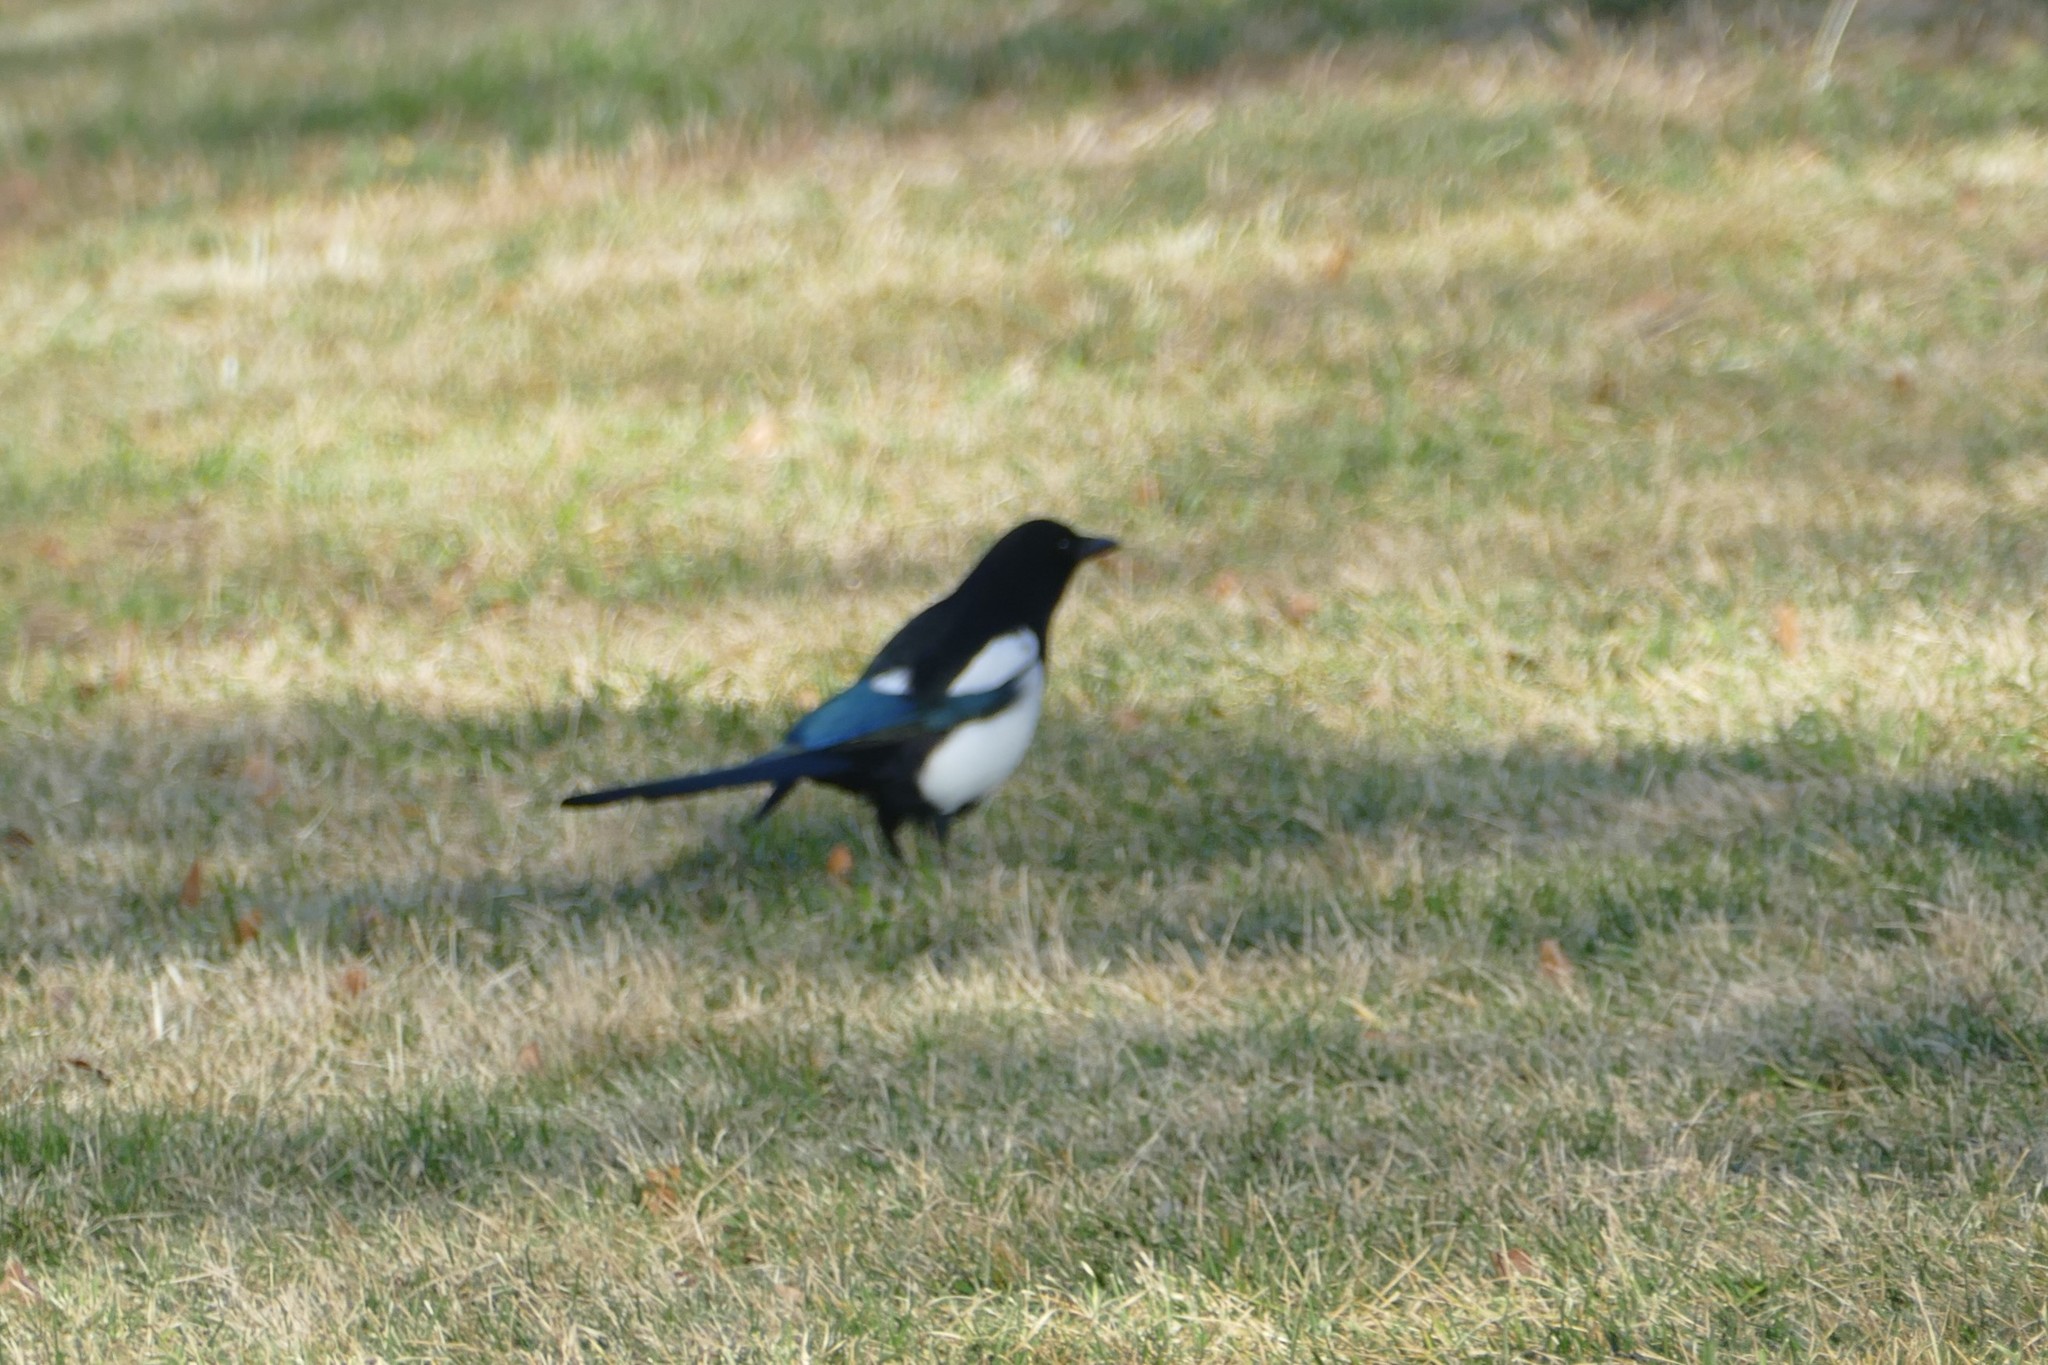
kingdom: Animalia
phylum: Chordata
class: Aves
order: Passeriformes
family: Corvidae
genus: Pica
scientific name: Pica pica
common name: Eurasian magpie
